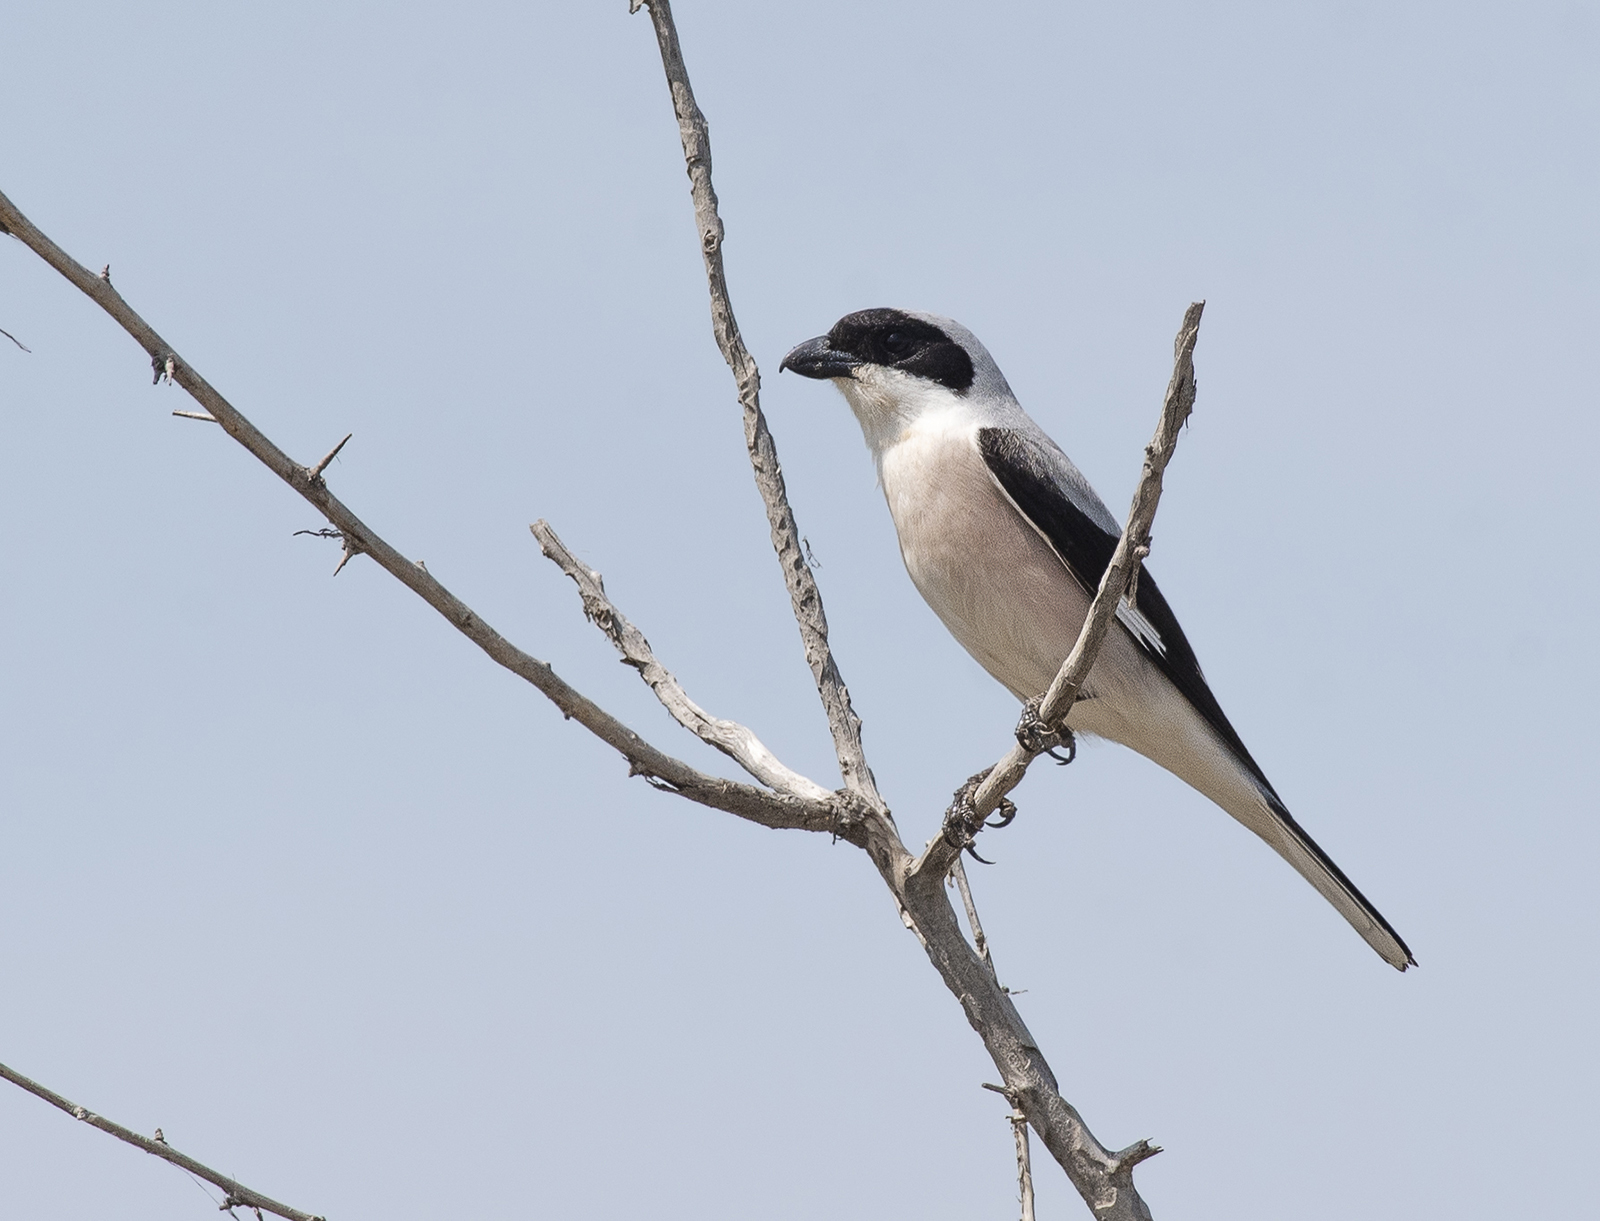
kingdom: Animalia
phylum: Chordata
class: Aves
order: Passeriformes
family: Laniidae
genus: Lanius
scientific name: Lanius minor
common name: Lesser grey shrike
